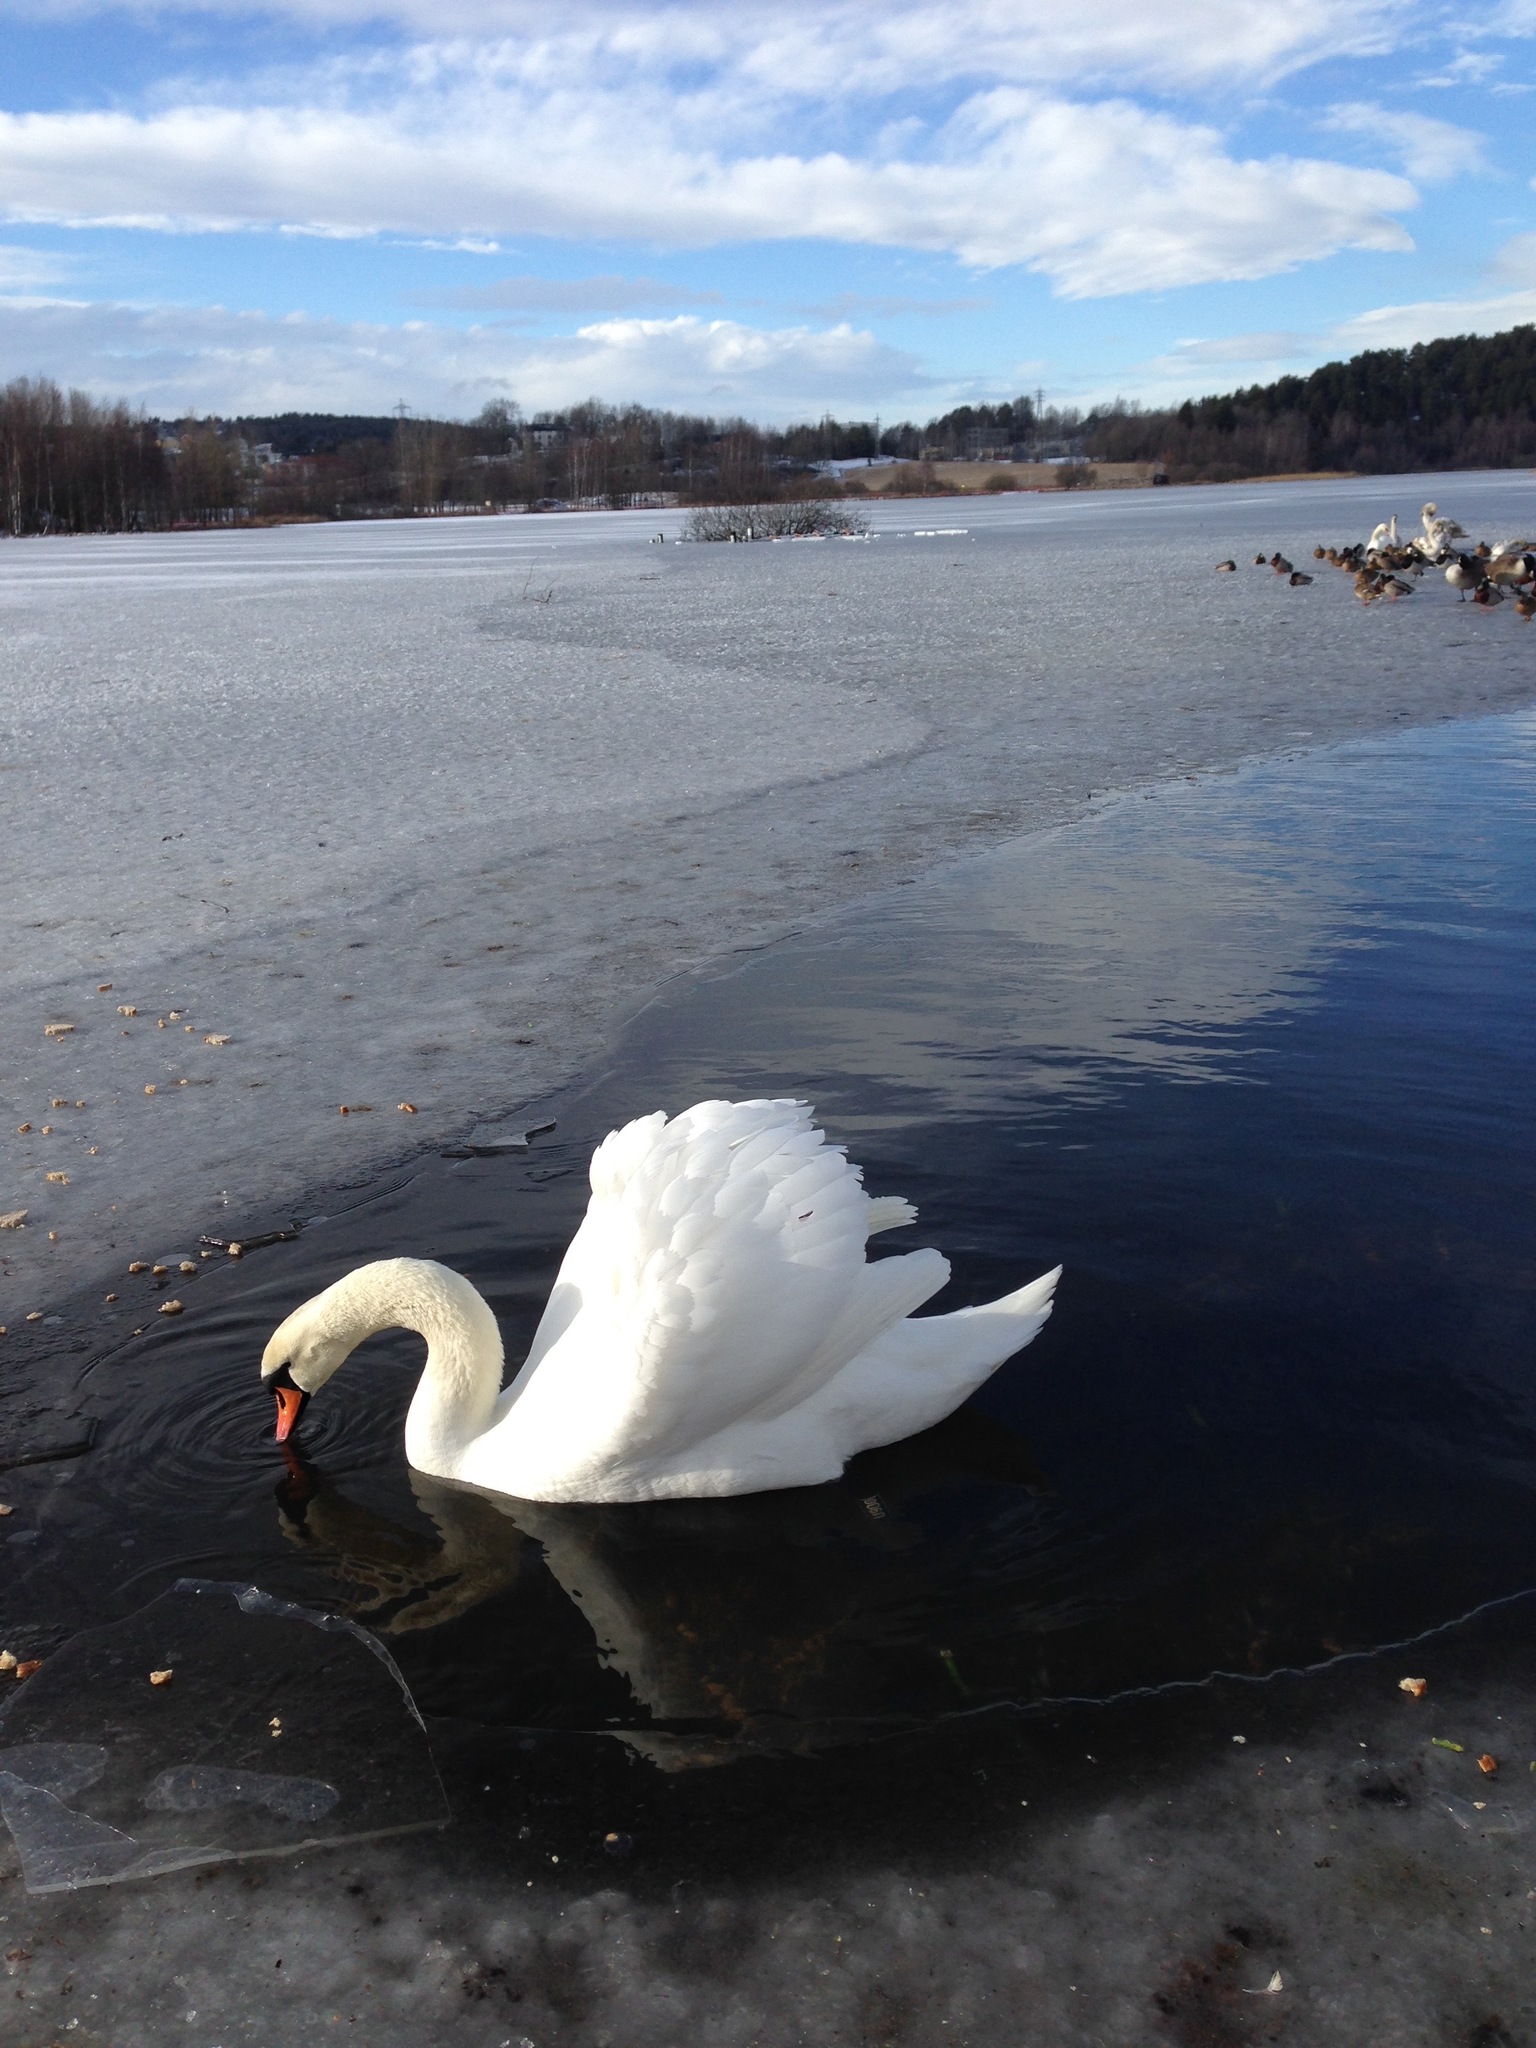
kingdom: Animalia
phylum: Chordata
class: Aves
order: Anseriformes
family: Anatidae
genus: Cygnus
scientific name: Cygnus olor
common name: Mute swan
